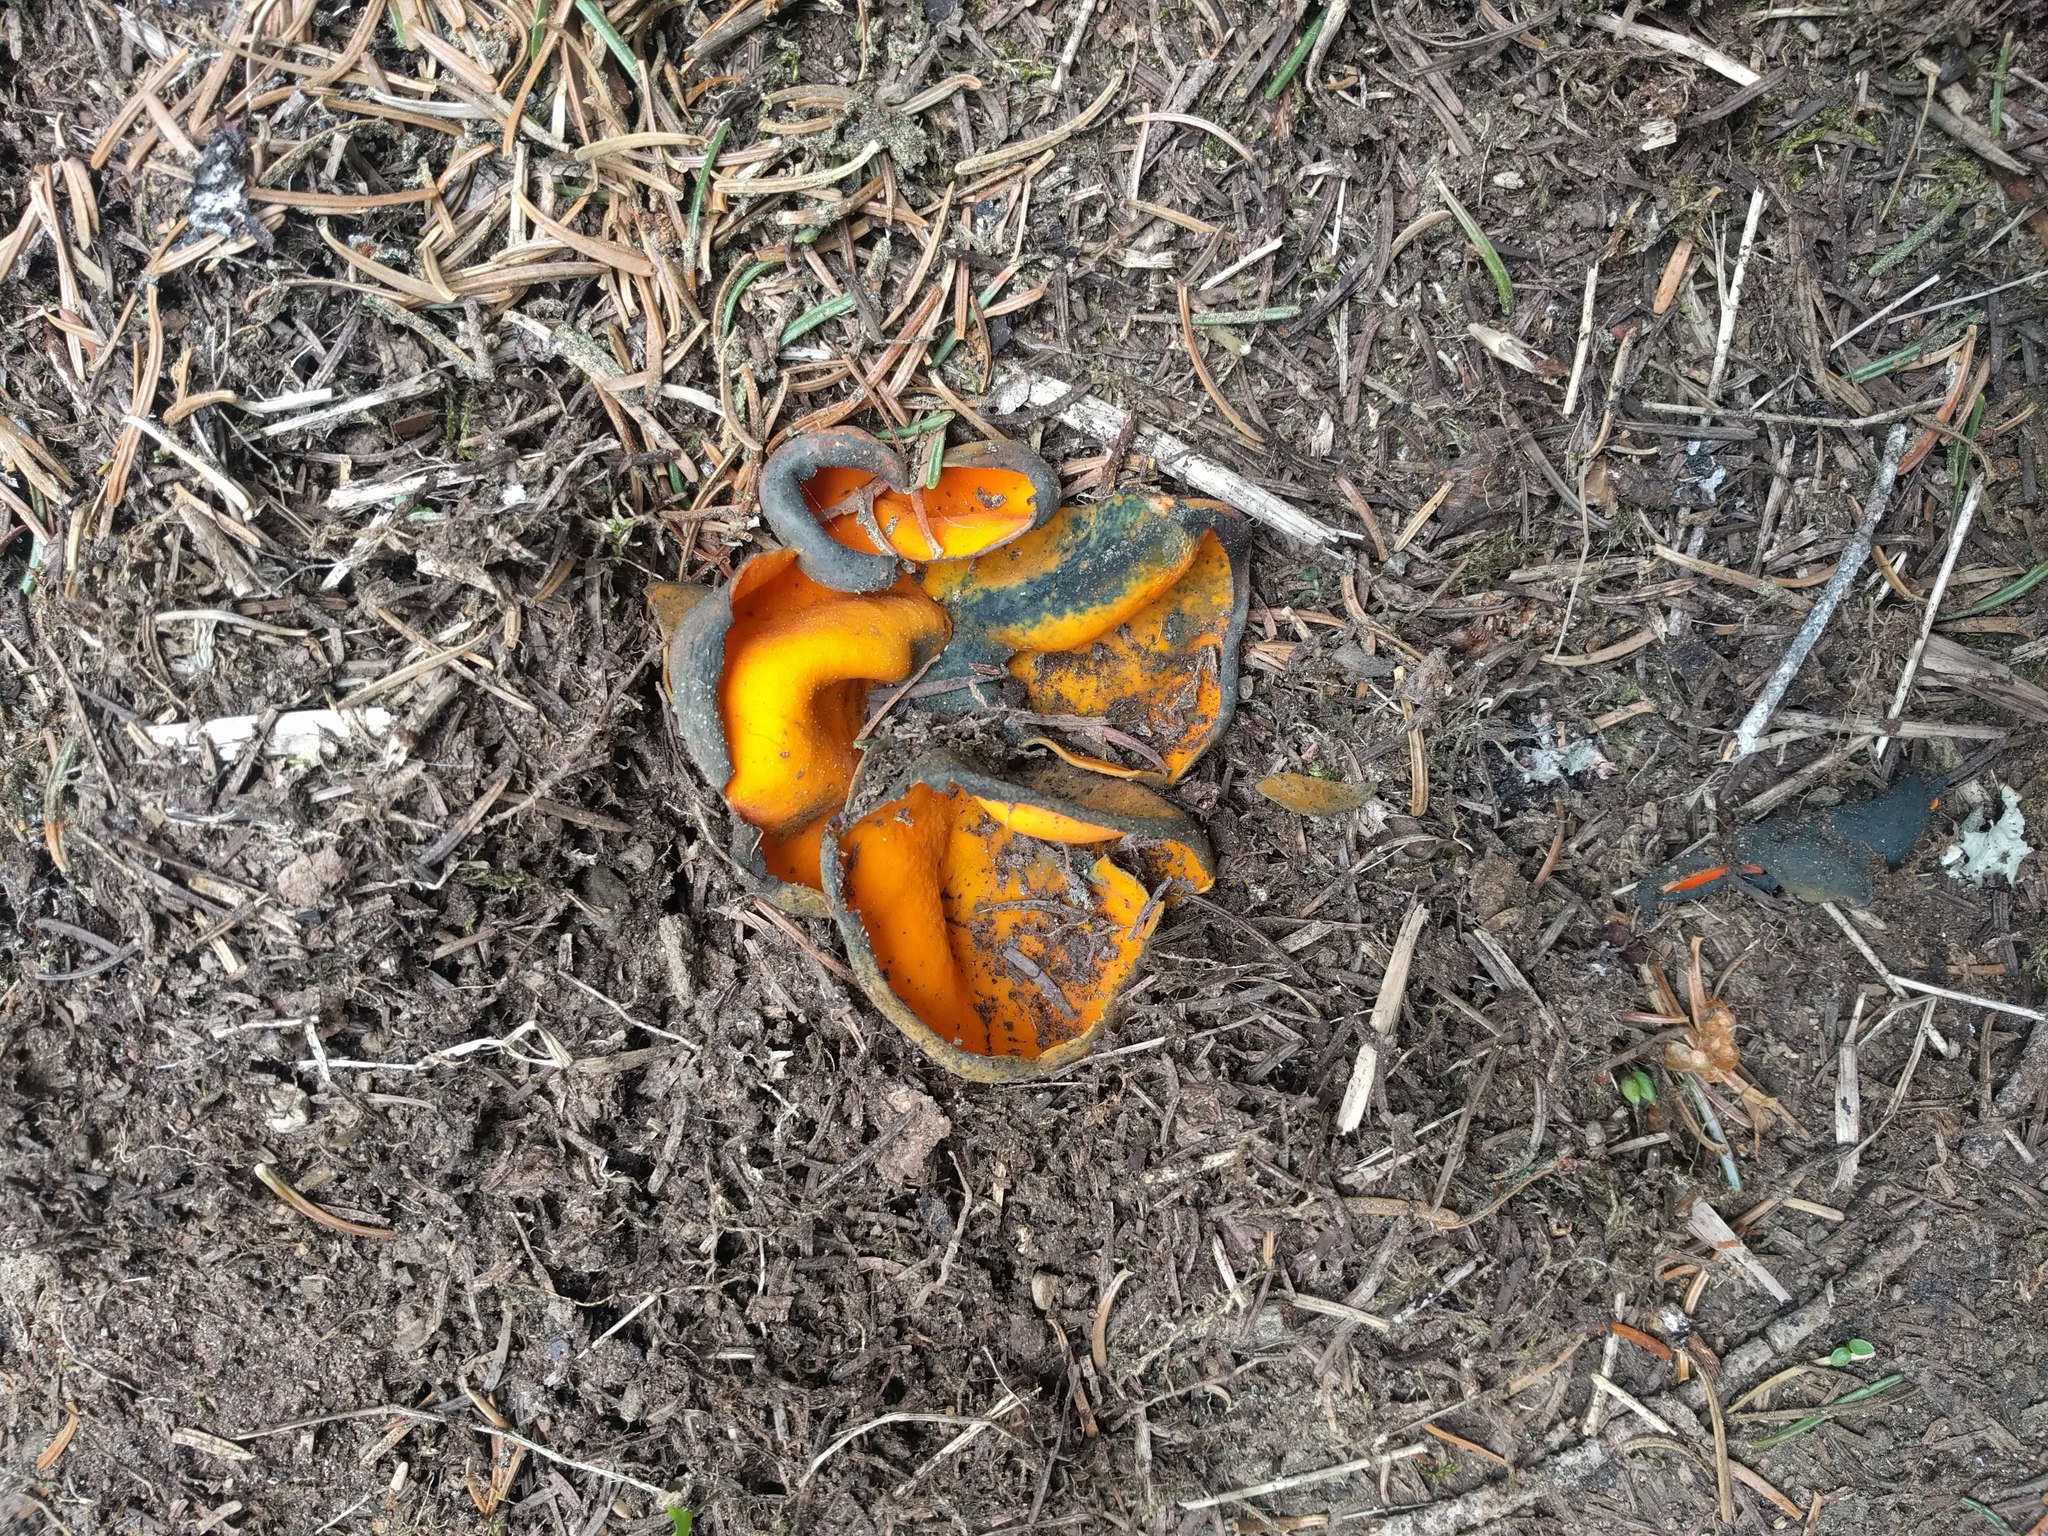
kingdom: Fungi
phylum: Ascomycota
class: Pezizomycetes
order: Pezizales
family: Caloscyphaceae
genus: Caloscypha
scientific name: Caloscypha fulgens
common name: Golden cup
